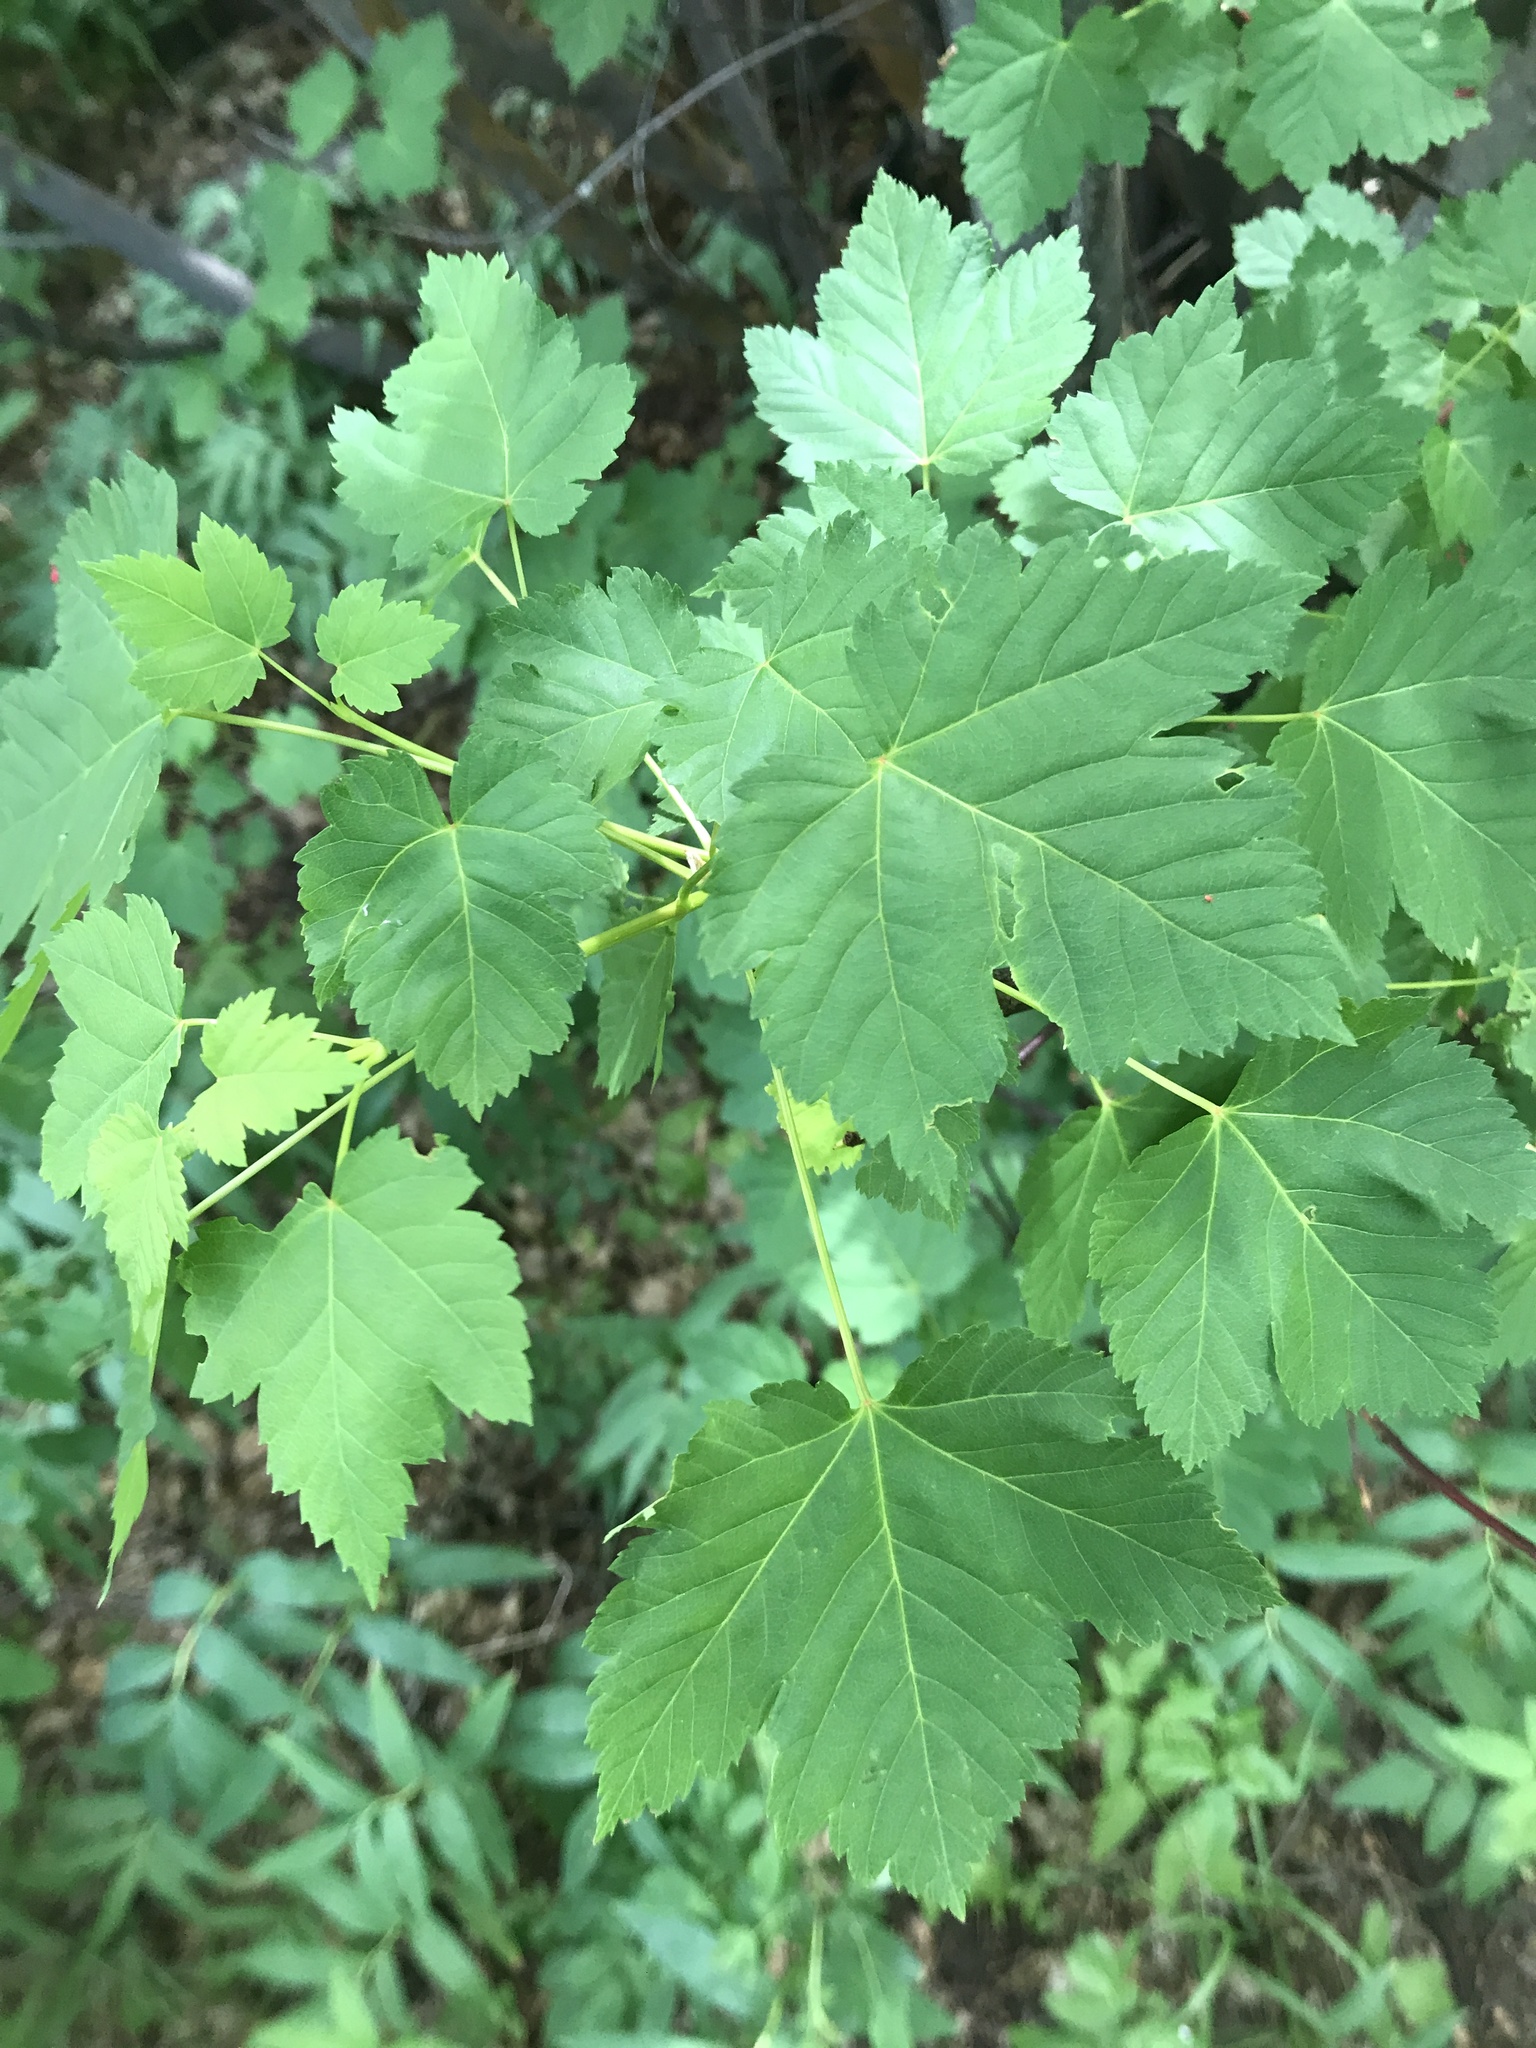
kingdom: Plantae
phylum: Tracheophyta
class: Magnoliopsida
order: Sapindales
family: Sapindaceae
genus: Acer
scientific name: Acer glabrum
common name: Rocky mountain maple
